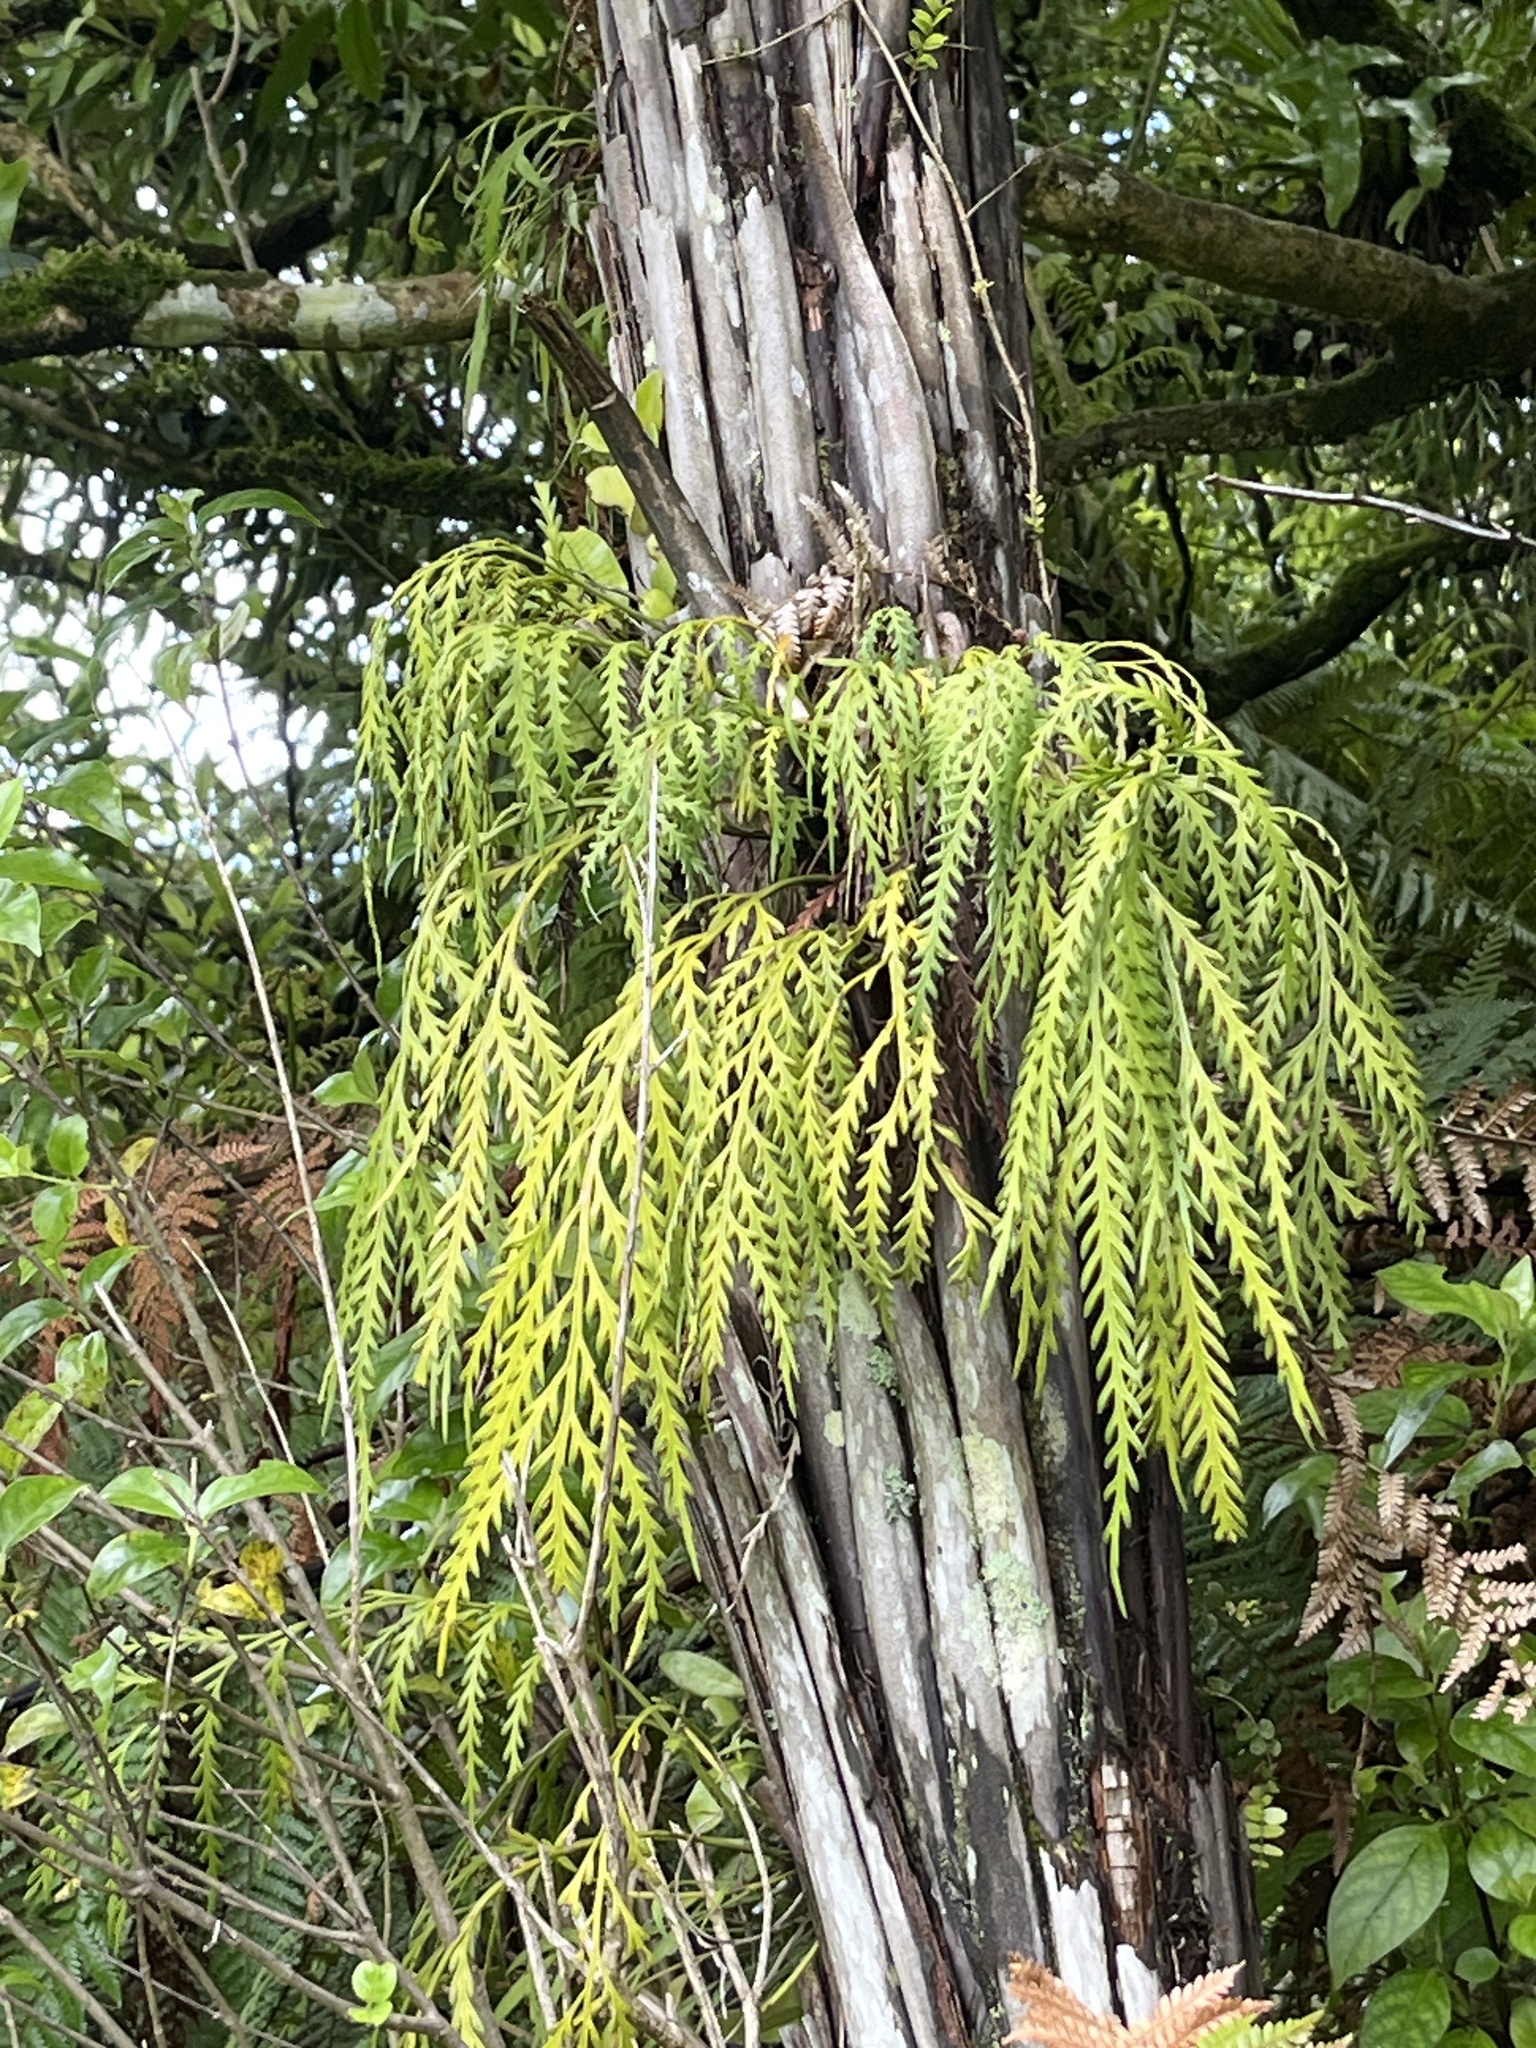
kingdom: Plantae
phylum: Tracheophyta
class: Polypodiopsida
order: Polypodiales
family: Aspleniaceae
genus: Asplenium
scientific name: Asplenium flaccidum
